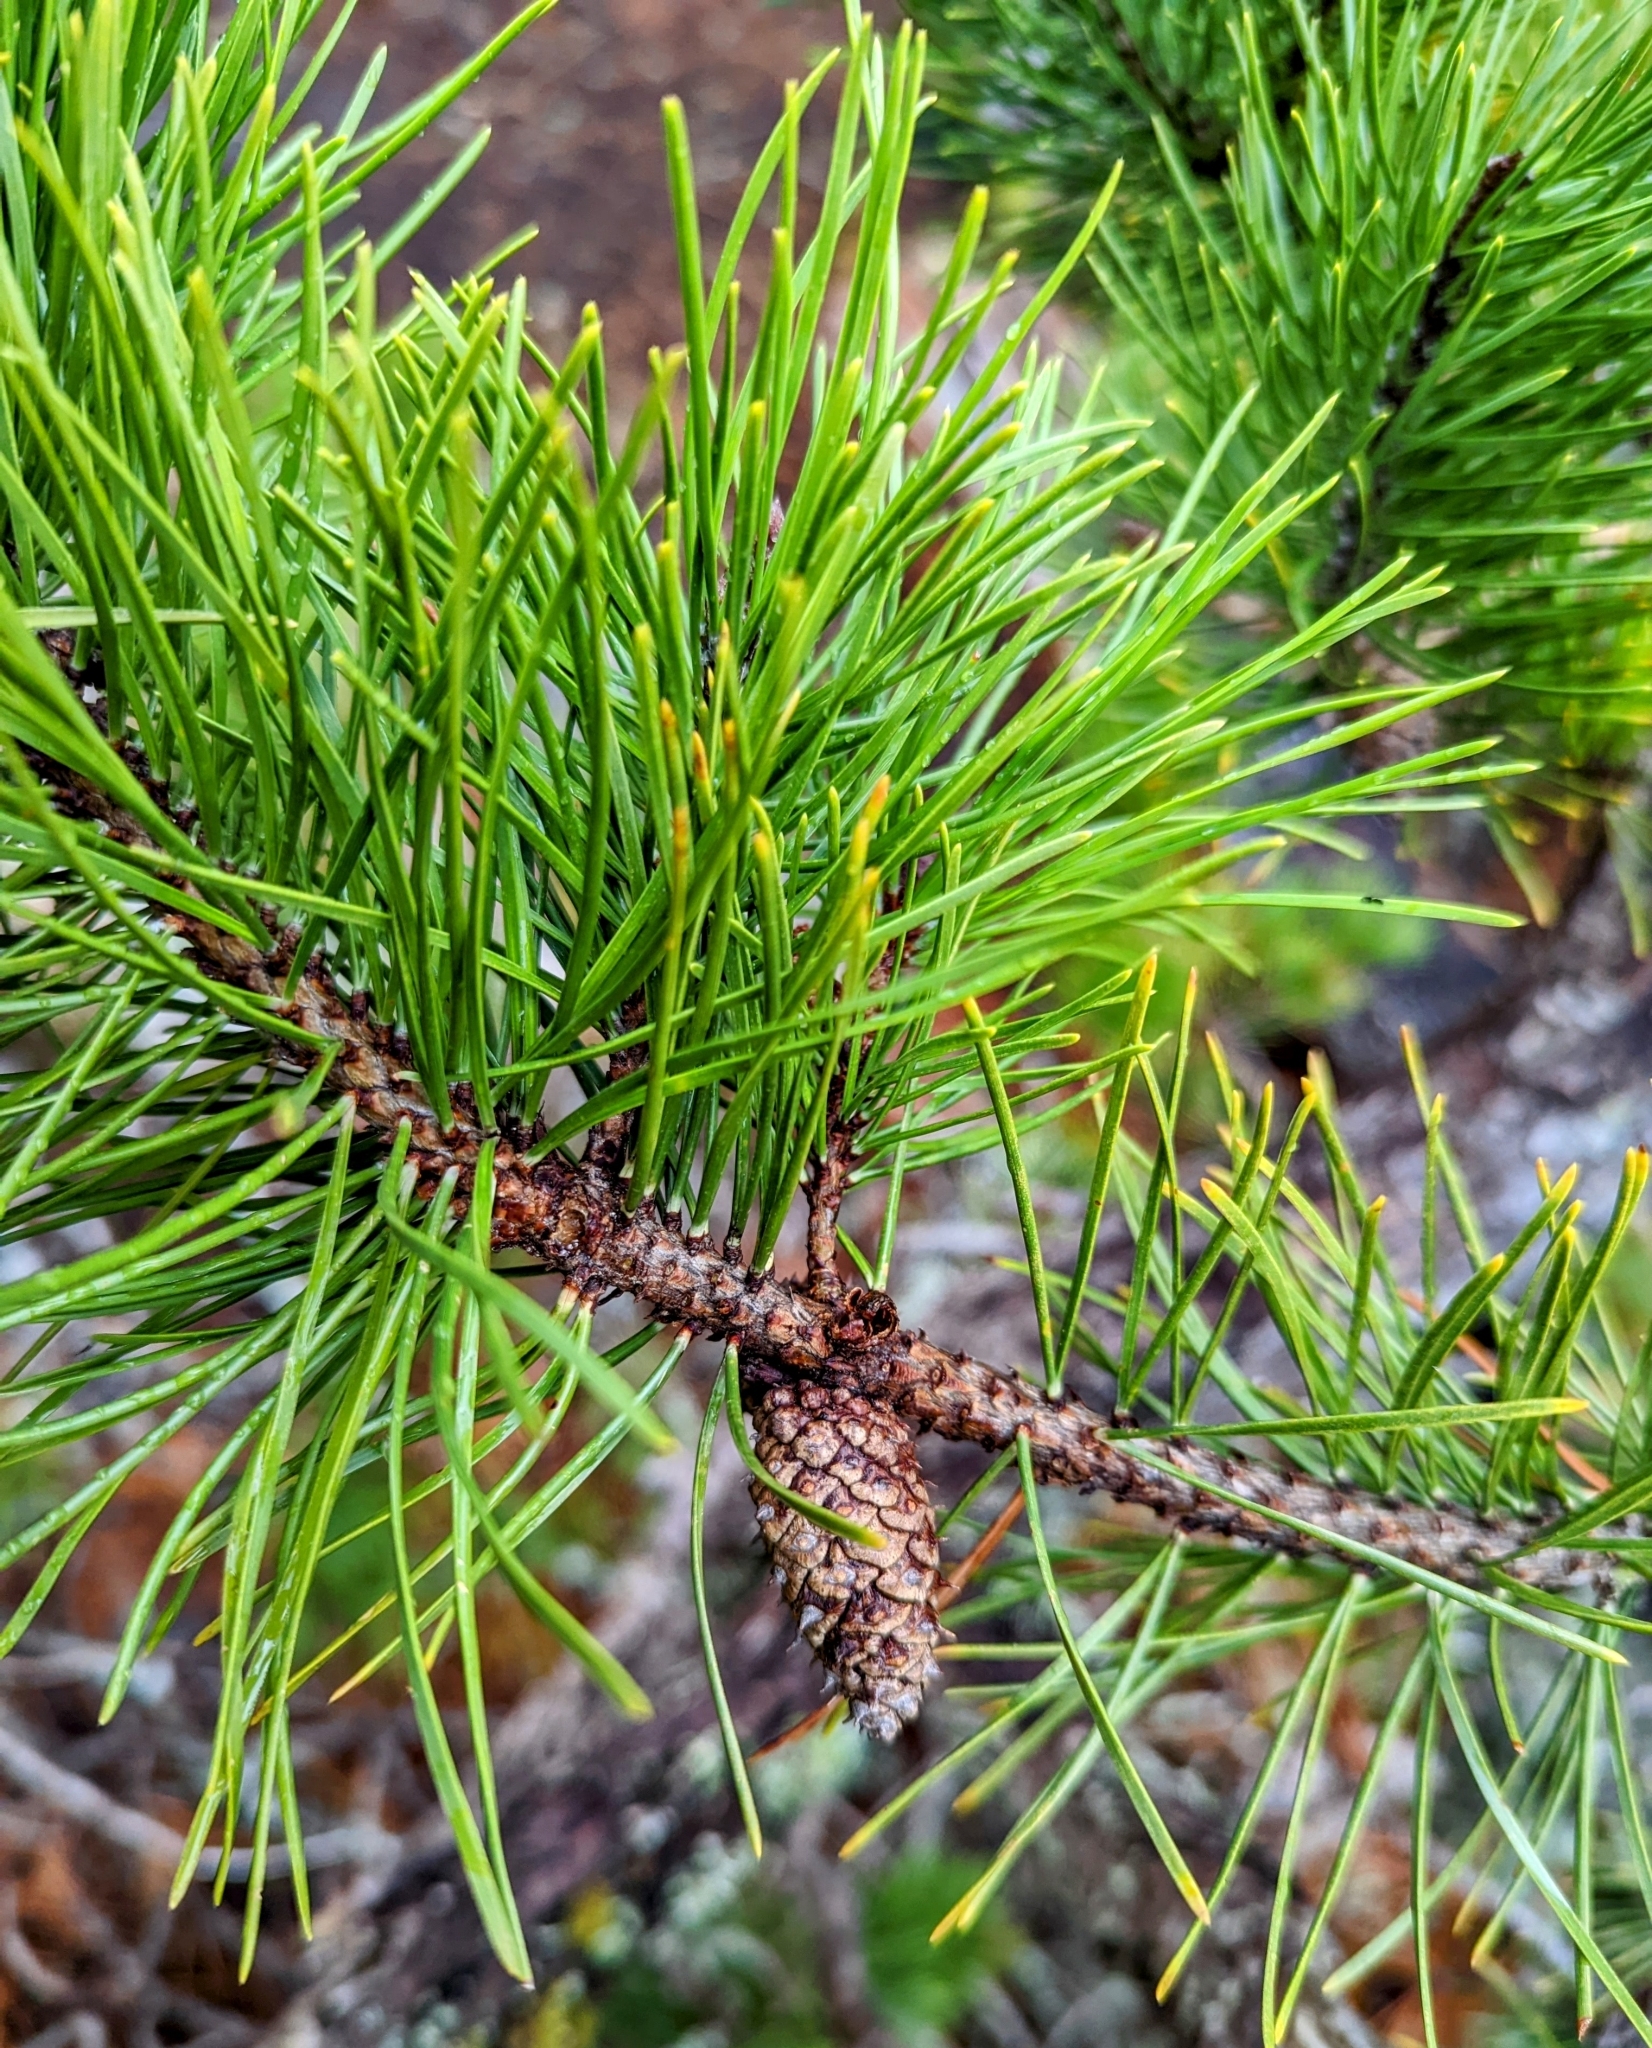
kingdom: Plantae
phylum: Tracheophyta
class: Pinopsida
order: Pinales
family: Pinaceae
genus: Pinus
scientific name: Pinus contorta
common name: Lodgepole pine
